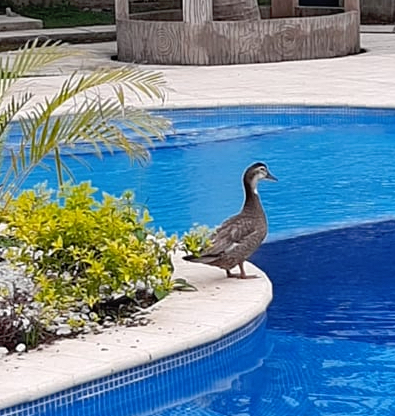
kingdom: Animalia
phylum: Chordata
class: Aves
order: Anseriformes
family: Anatidae
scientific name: Anatidae
